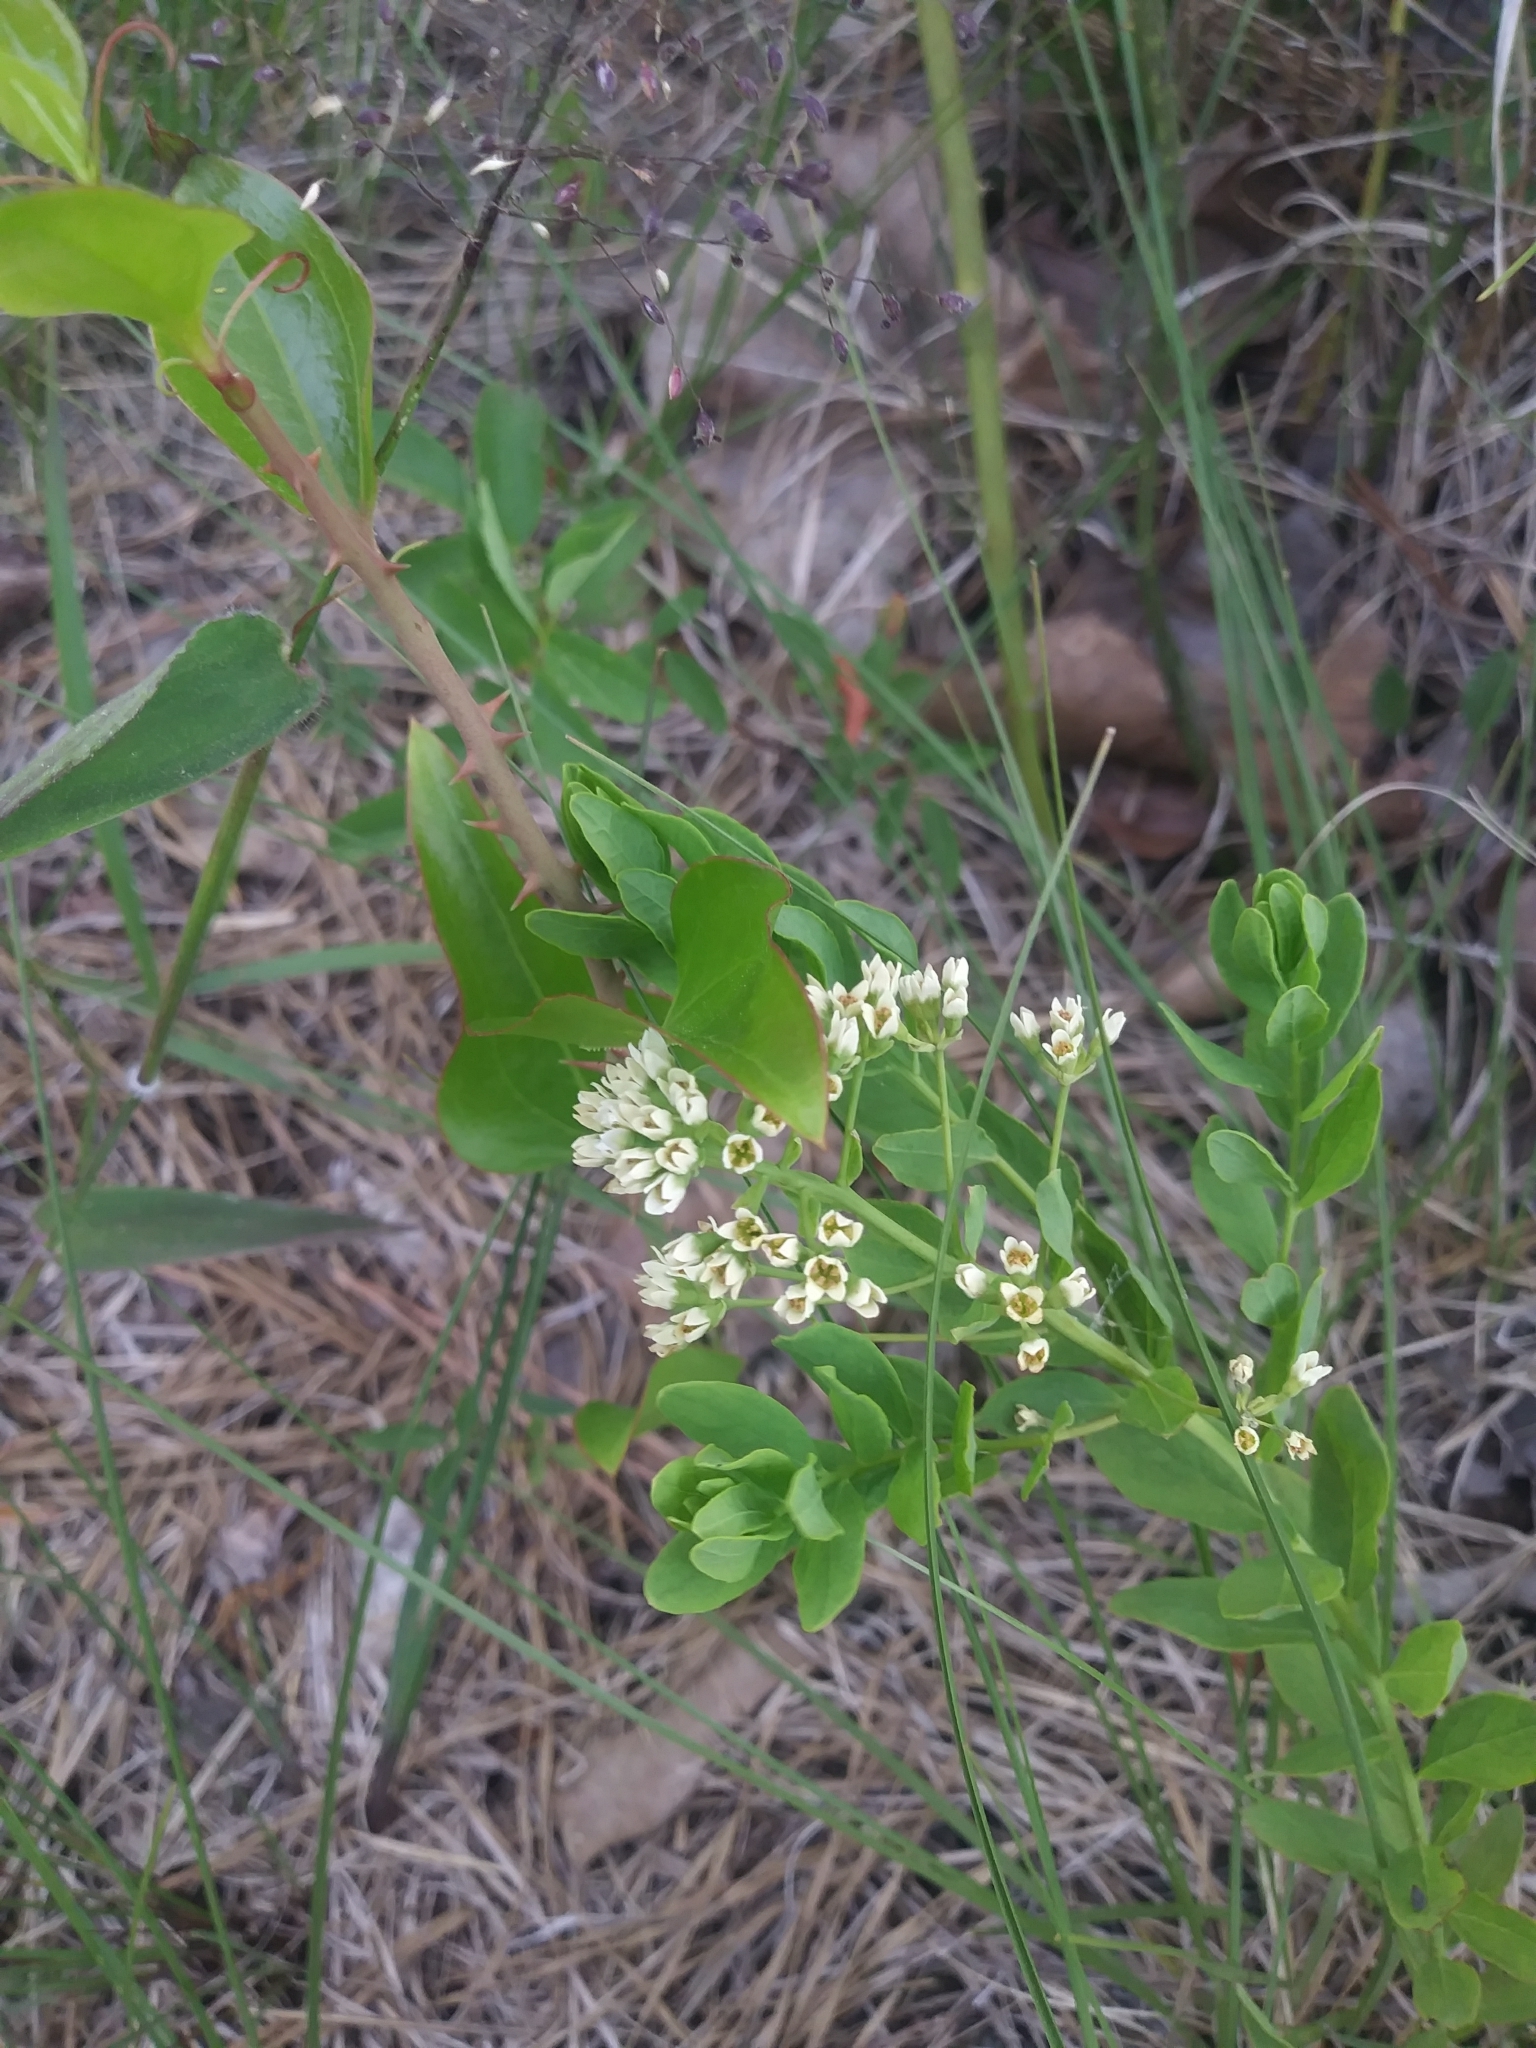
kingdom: Plantae
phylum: Tracheophyta
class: Magnoliopsida
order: Santalales
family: Comandraceae
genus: Comandra
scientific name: Comandra umbellata
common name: Bastard toadflax
